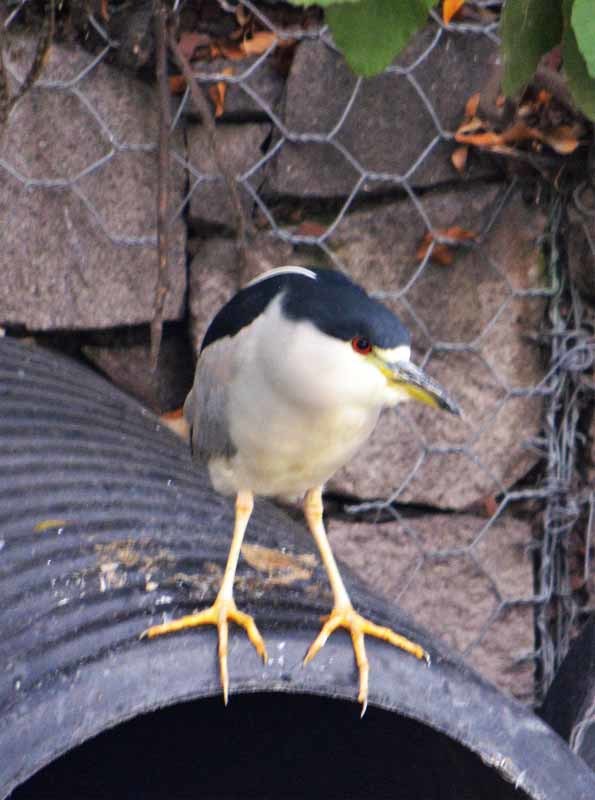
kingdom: Animalia
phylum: Chordata
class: Aves
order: Pelecaniformes
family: Ardeidae
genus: Nycticorax
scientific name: Nycticorax nycticorax
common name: Black-crowned night heron
